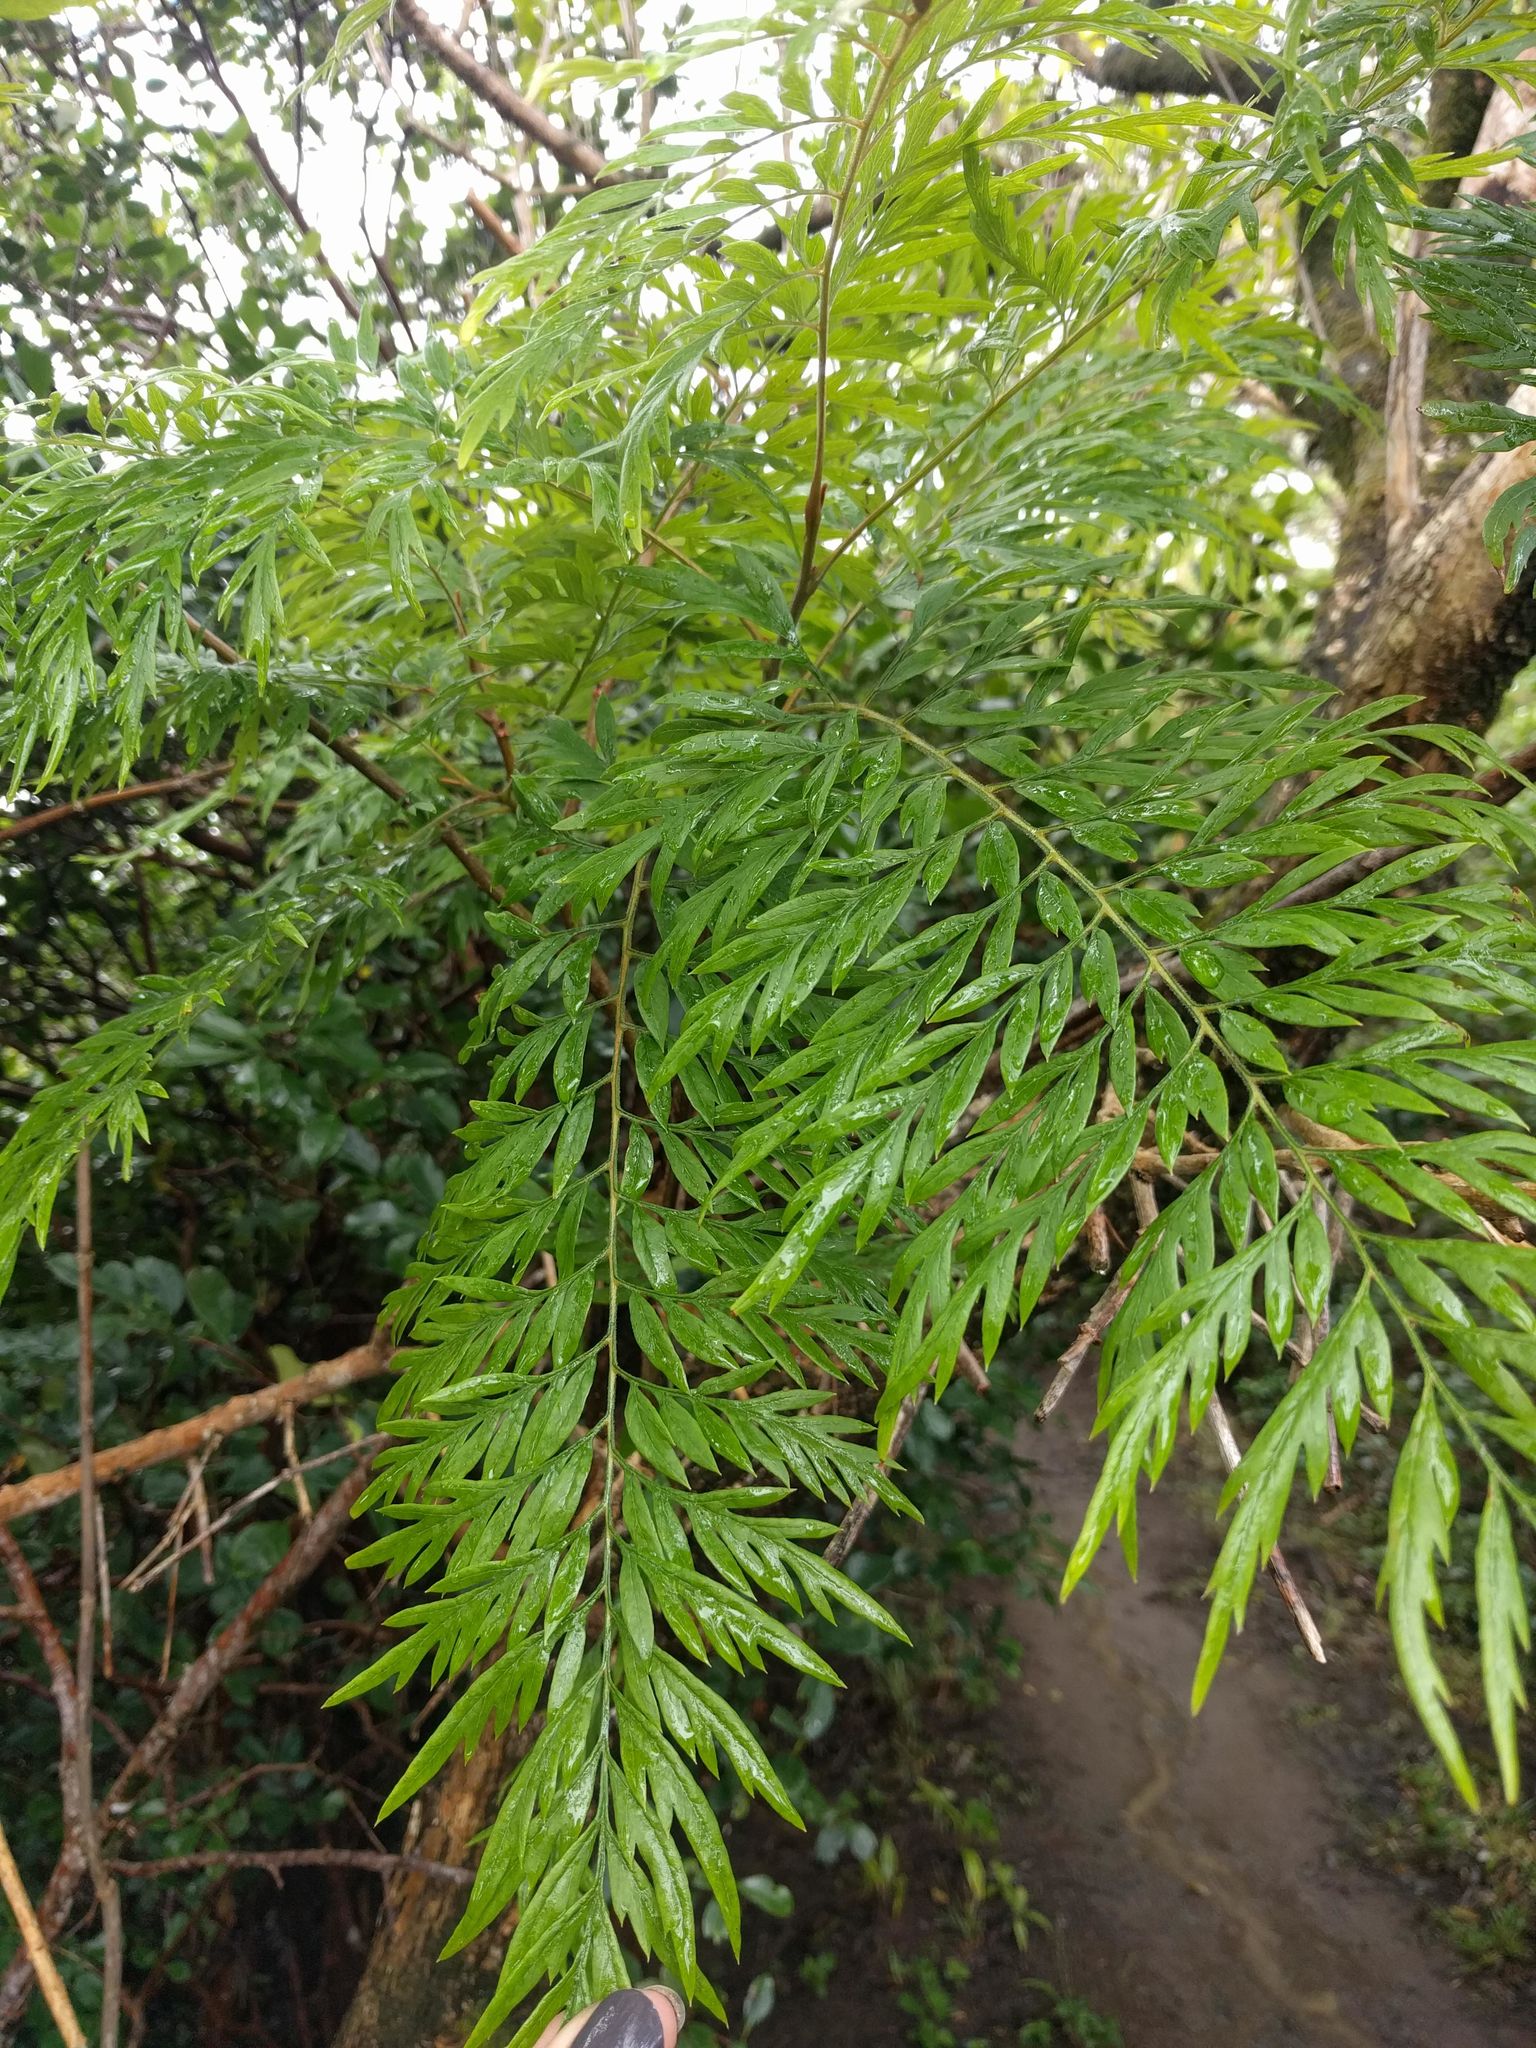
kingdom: Plantae
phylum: Tracheophyta
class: Magnoliopsida
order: Proteales
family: Proteaceae
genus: Grevillea
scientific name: Grevillea robusta
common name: Silkoak
